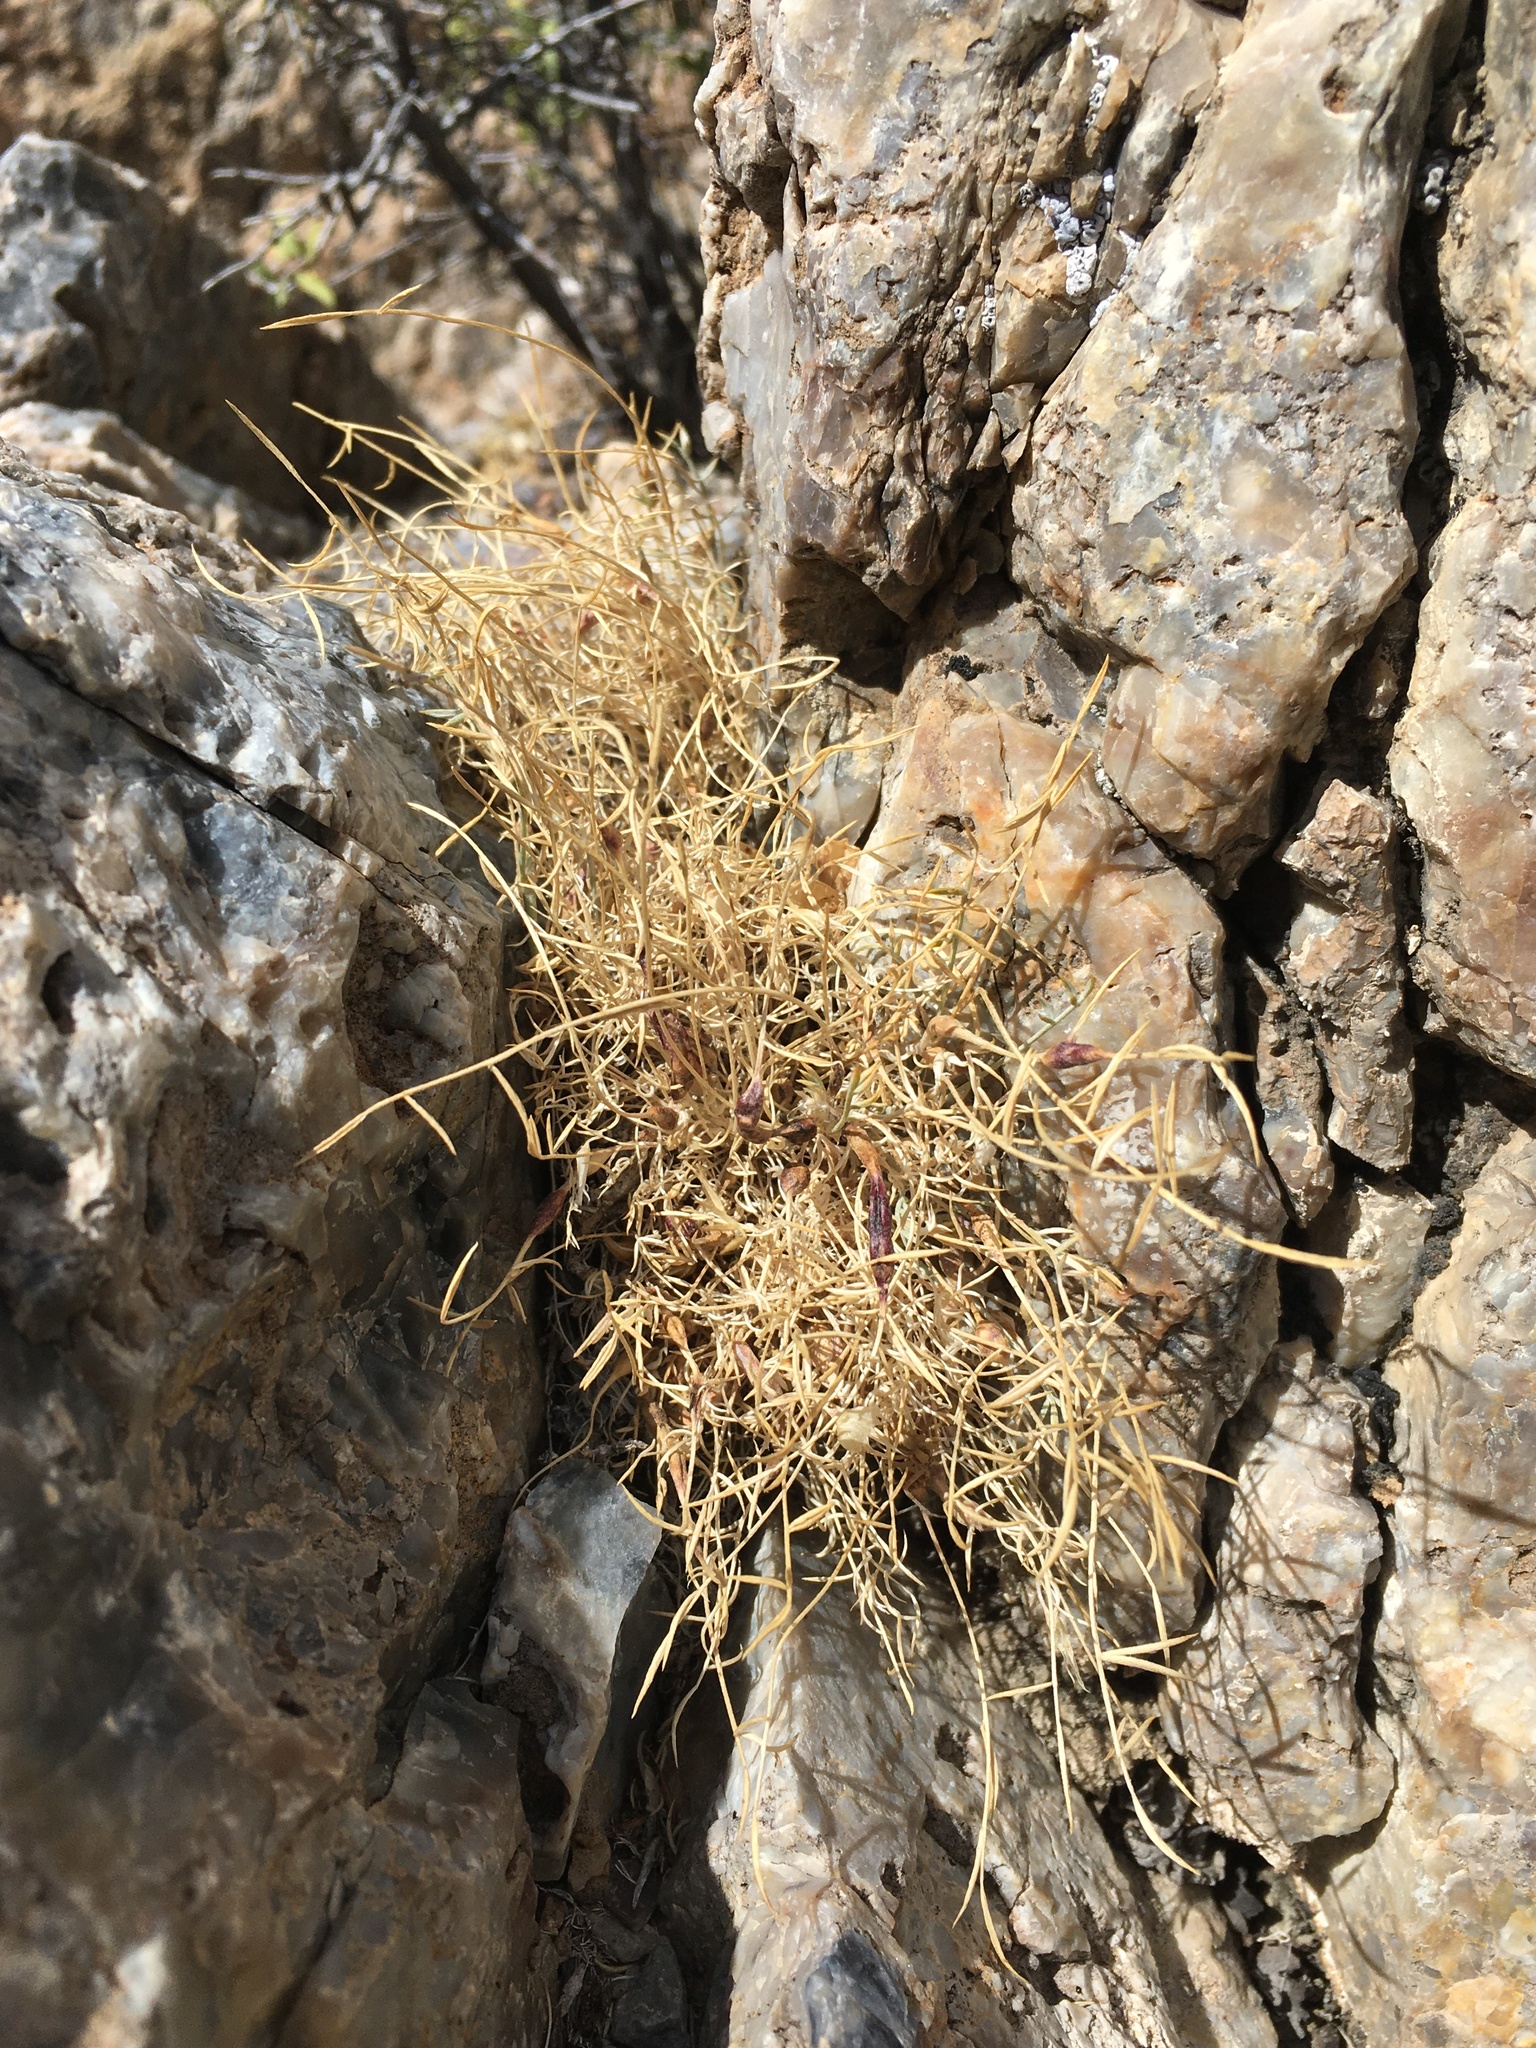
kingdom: Plantae
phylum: Tracheophyta
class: Magnoliopsida
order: Fabales
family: Fabaceae
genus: Astragalus
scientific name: Astragalus panamintensis
